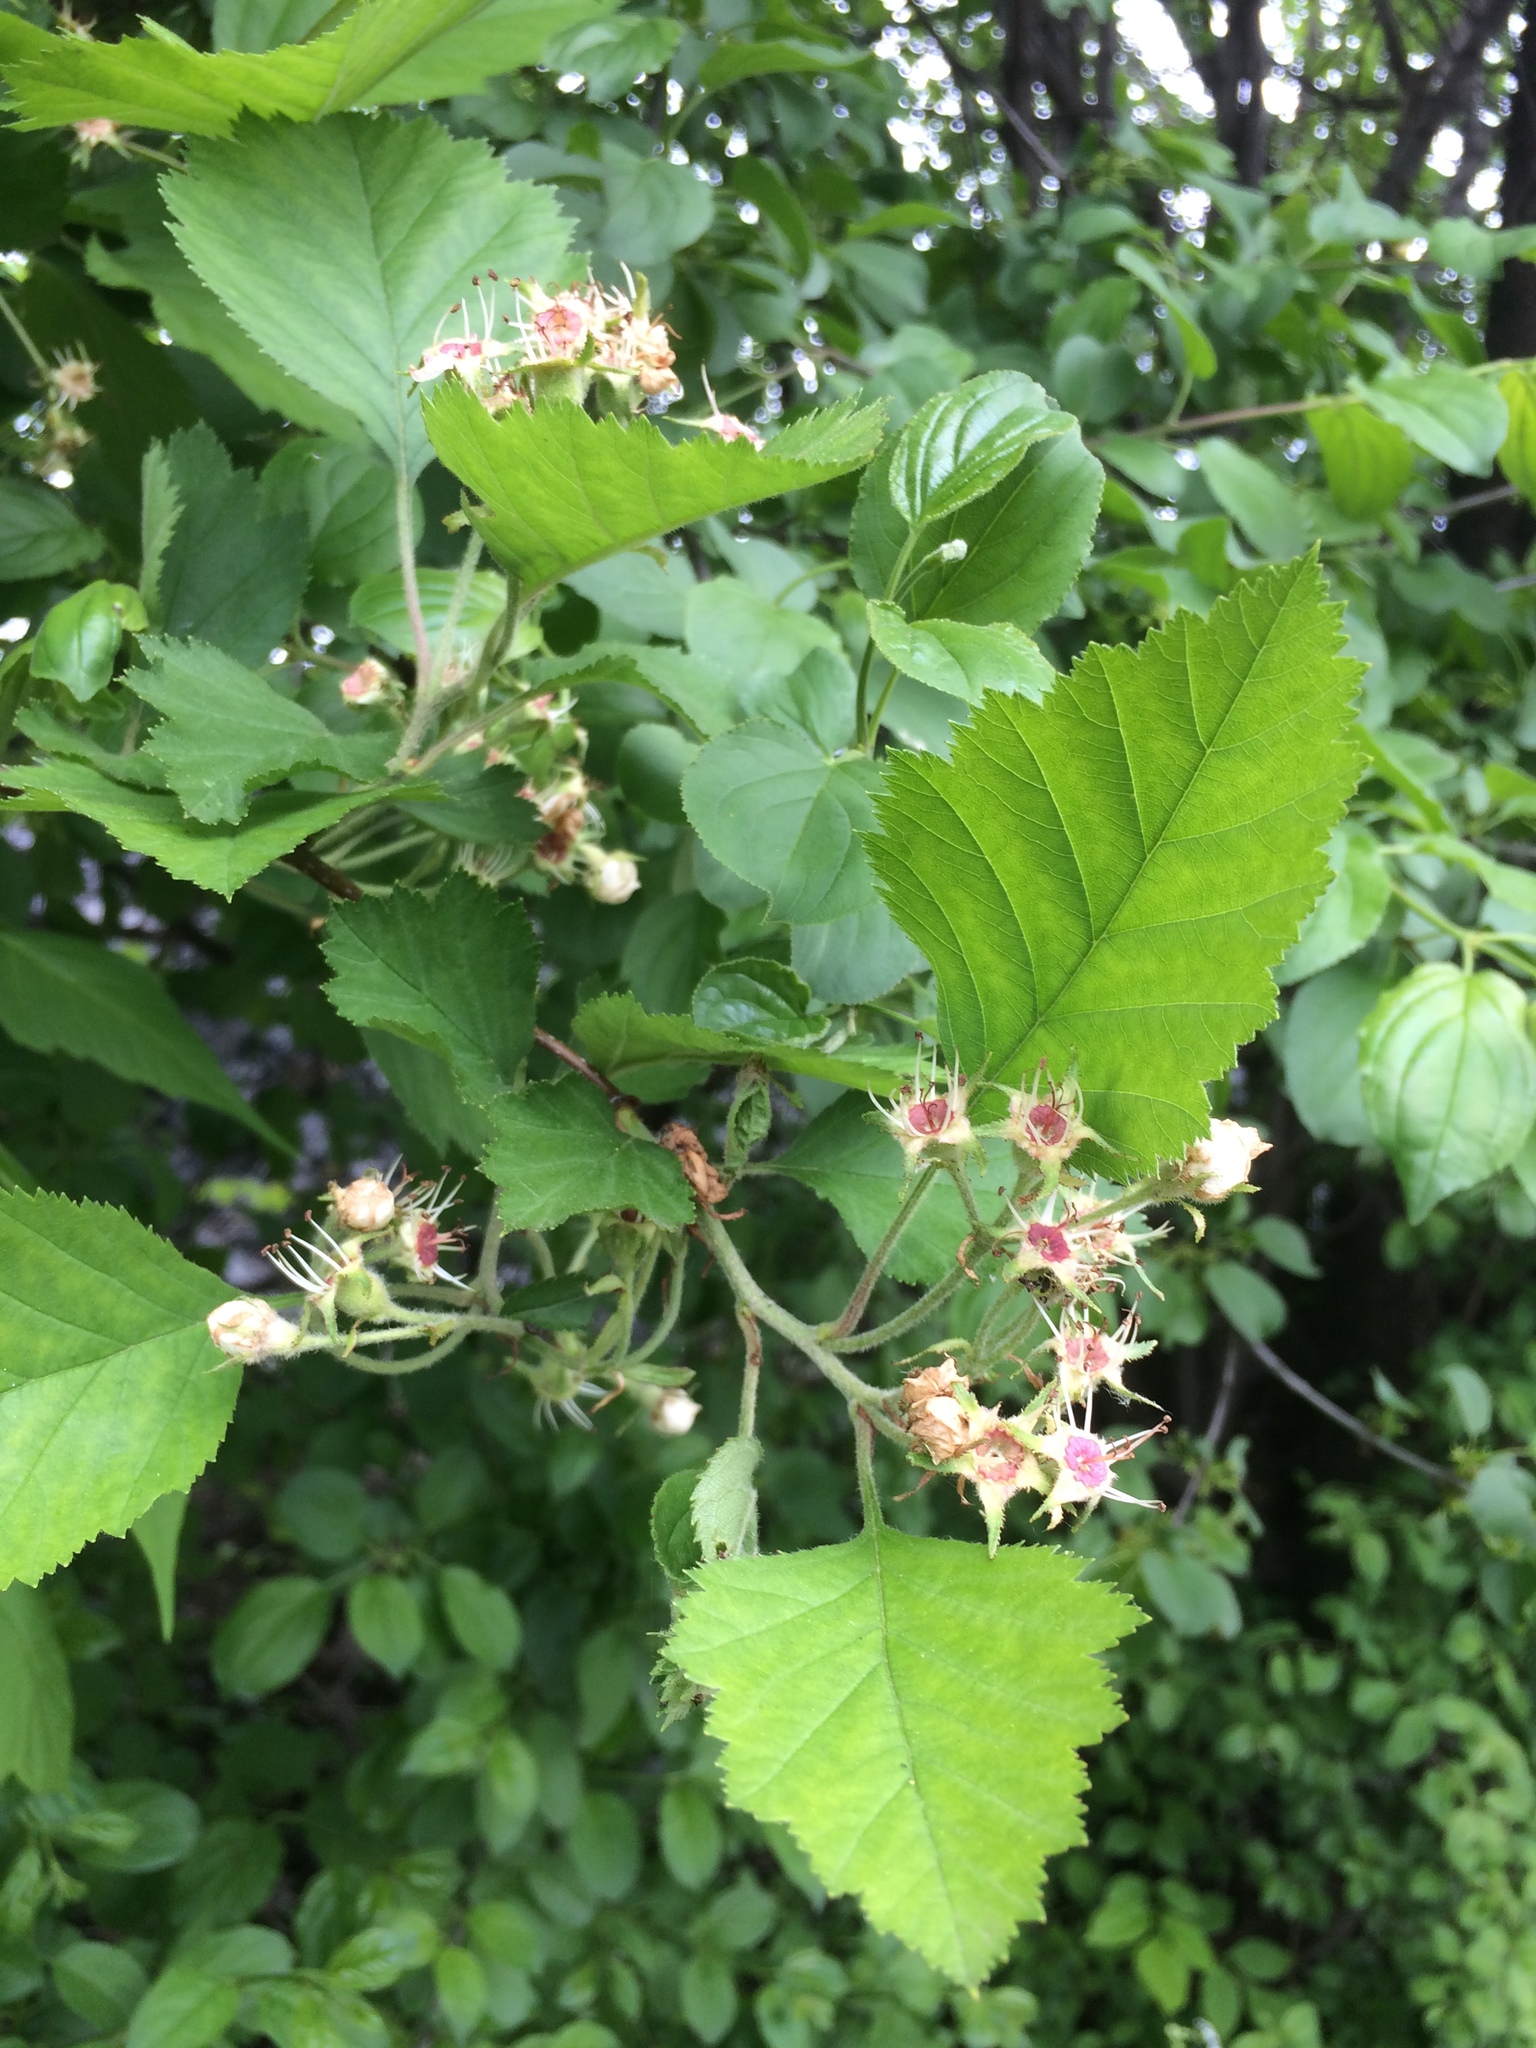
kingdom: Plantae
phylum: Tracheophyta
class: Magnoliopsida
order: Rosales
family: Rosaceae
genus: Crataegus
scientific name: Crataegus submollis
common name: Hairy cockspurthorn
